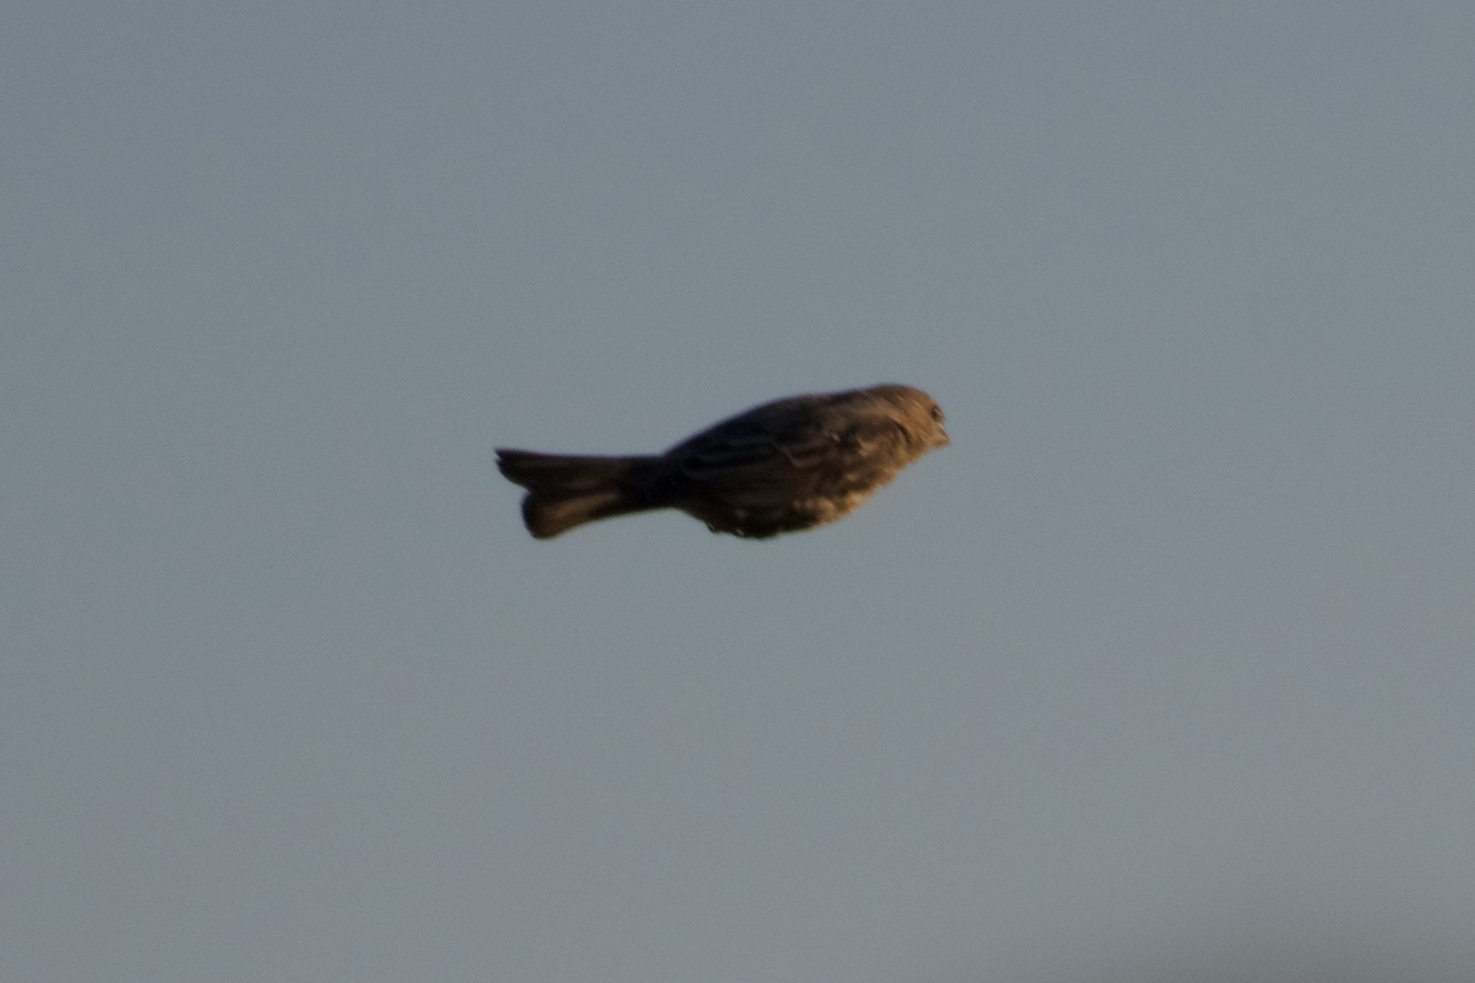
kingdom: Animalia
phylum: Chordata
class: Aves
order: Passeriformes
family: Fringillidae
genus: Haemorhous
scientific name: Haemorhous mexicanus
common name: House finch
